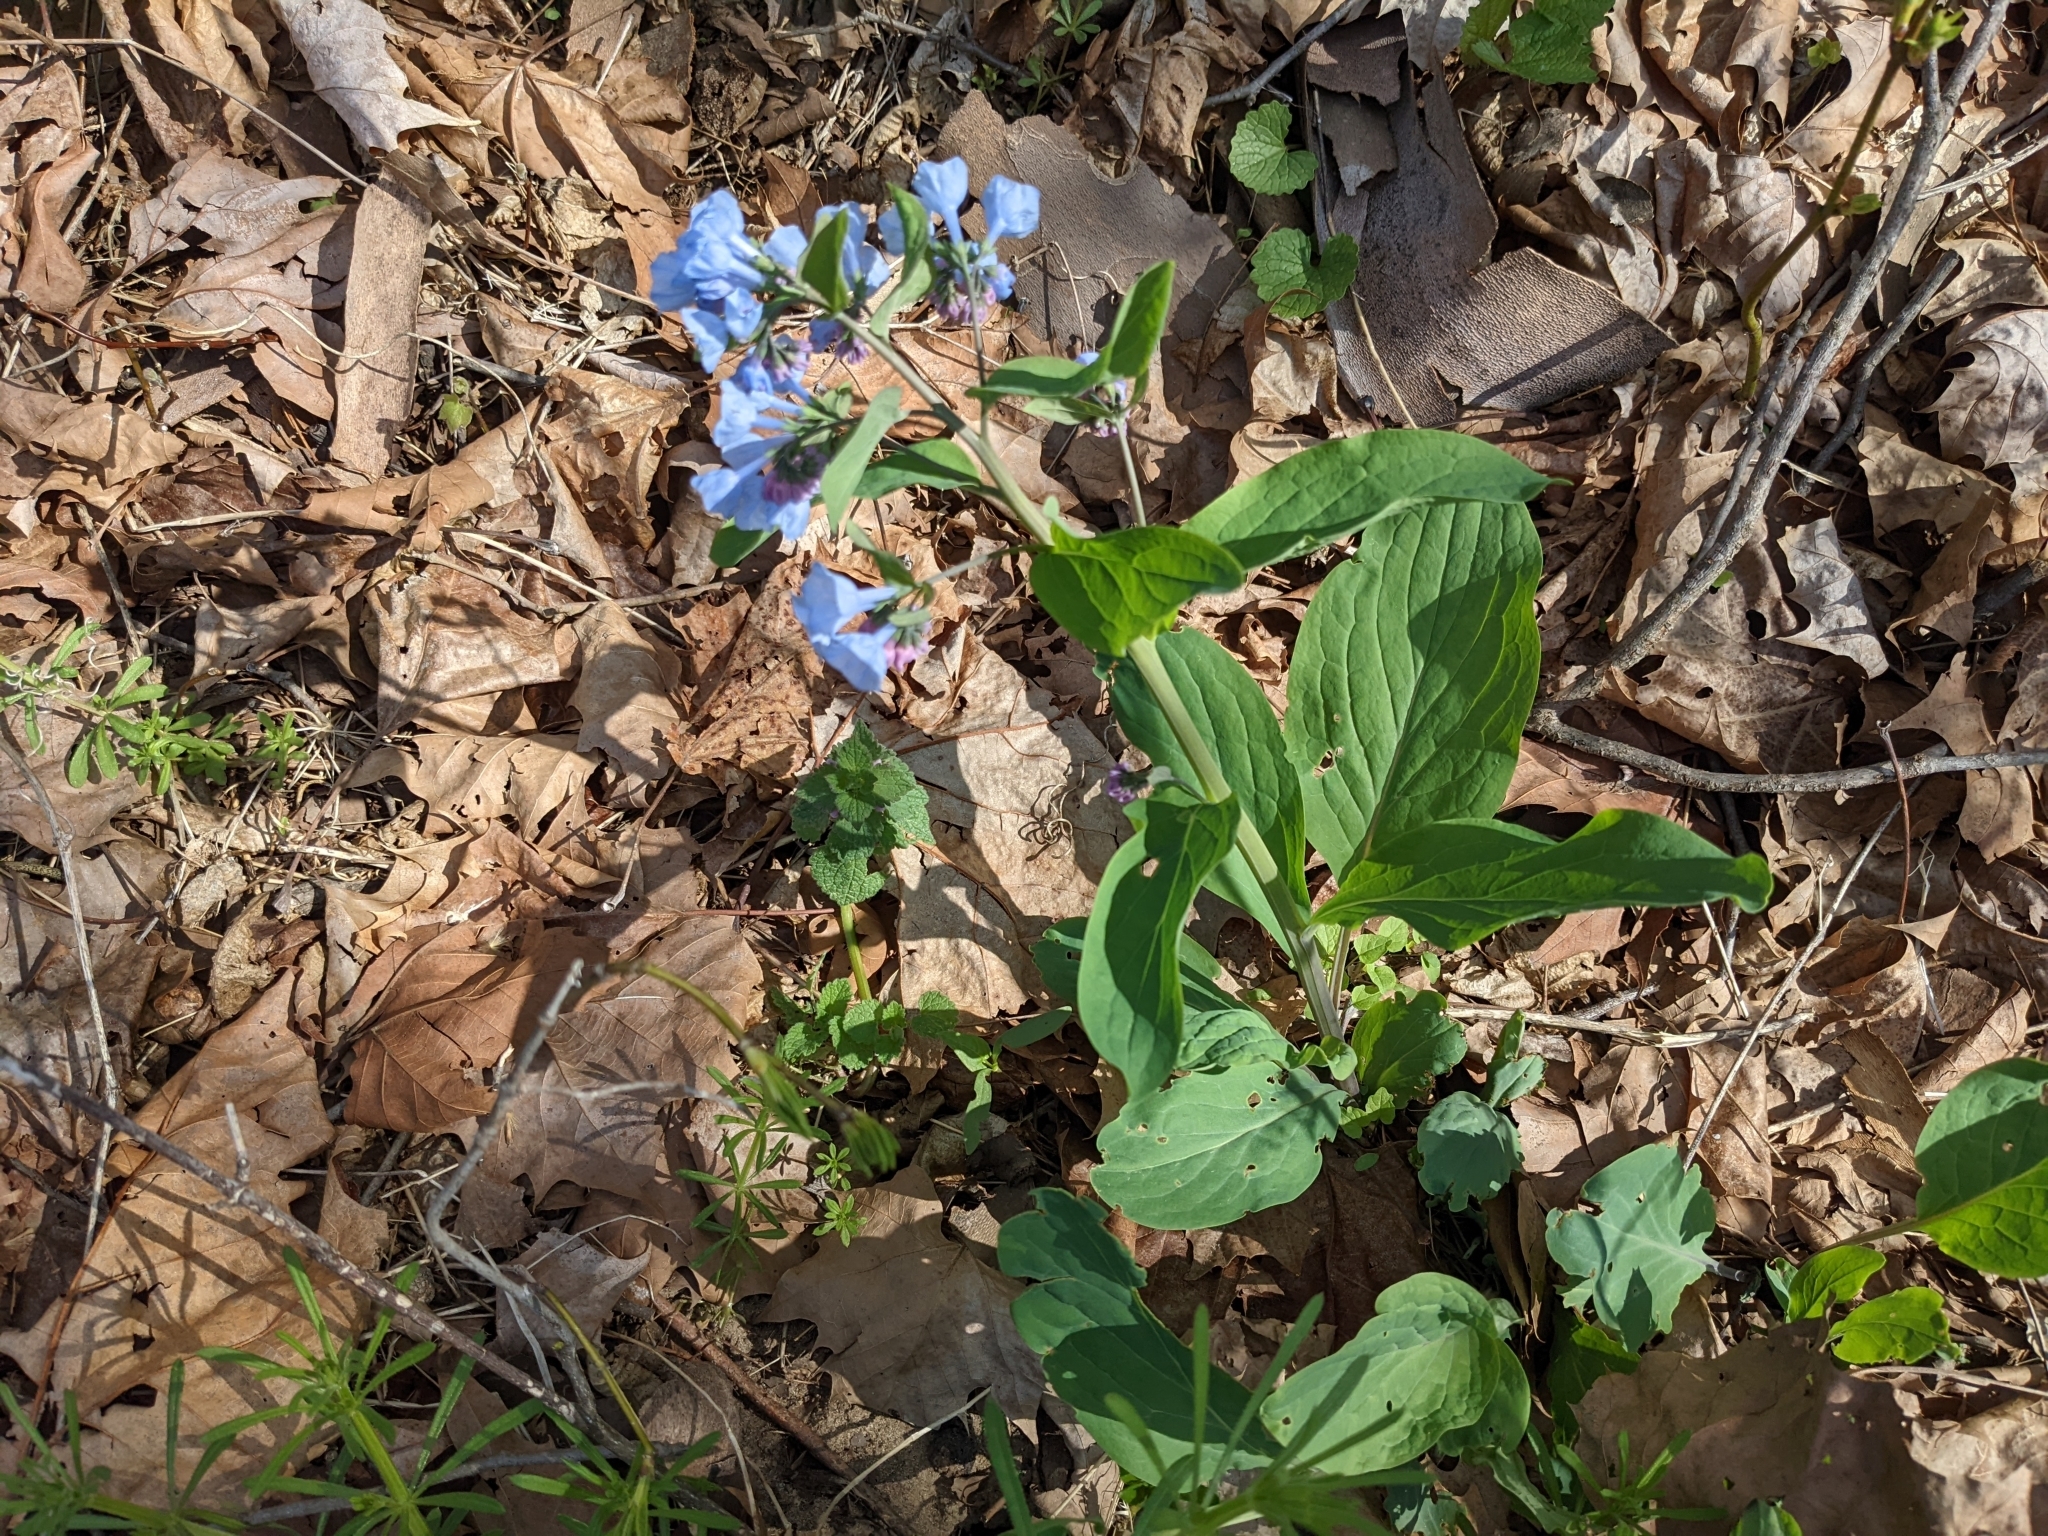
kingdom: Plantae
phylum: Tracheophyta
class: Magnoliopsida
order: Boraginales
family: Boraginaceae
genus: Mertensia
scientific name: Mertensia virginica
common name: Virginia bluebells
